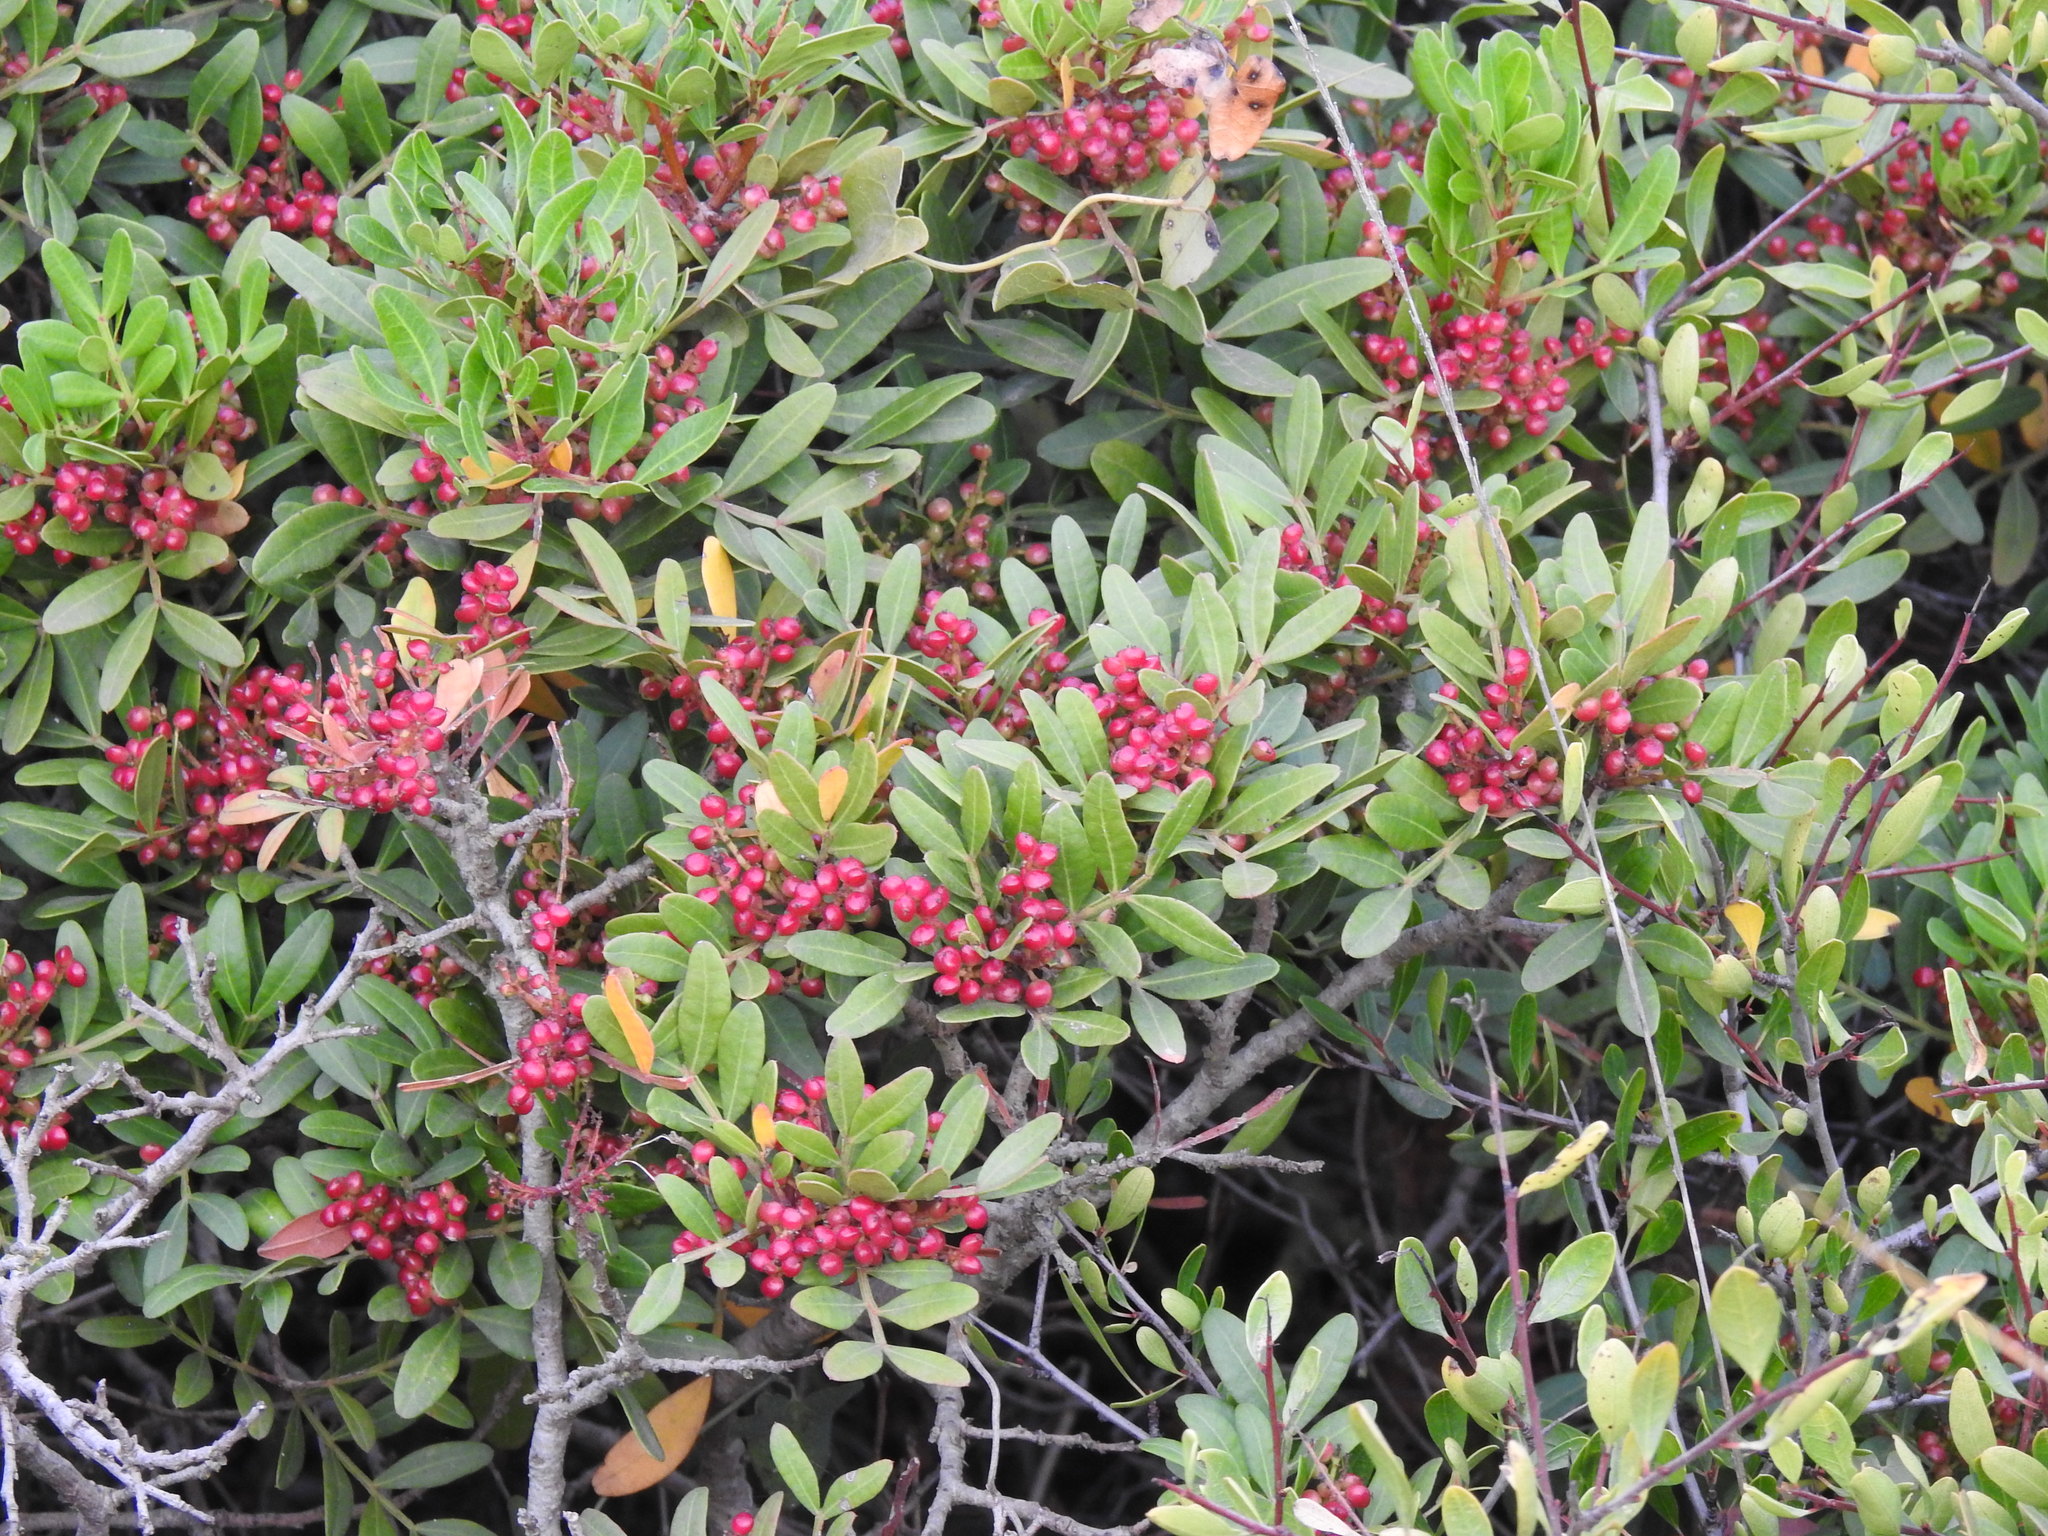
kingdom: Plantae
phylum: Tracheophyta
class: Magnoliopsida
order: Sapindales
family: Anacardiaceae
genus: Pistacia
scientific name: Pistacia lentiscus
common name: Lentisk
